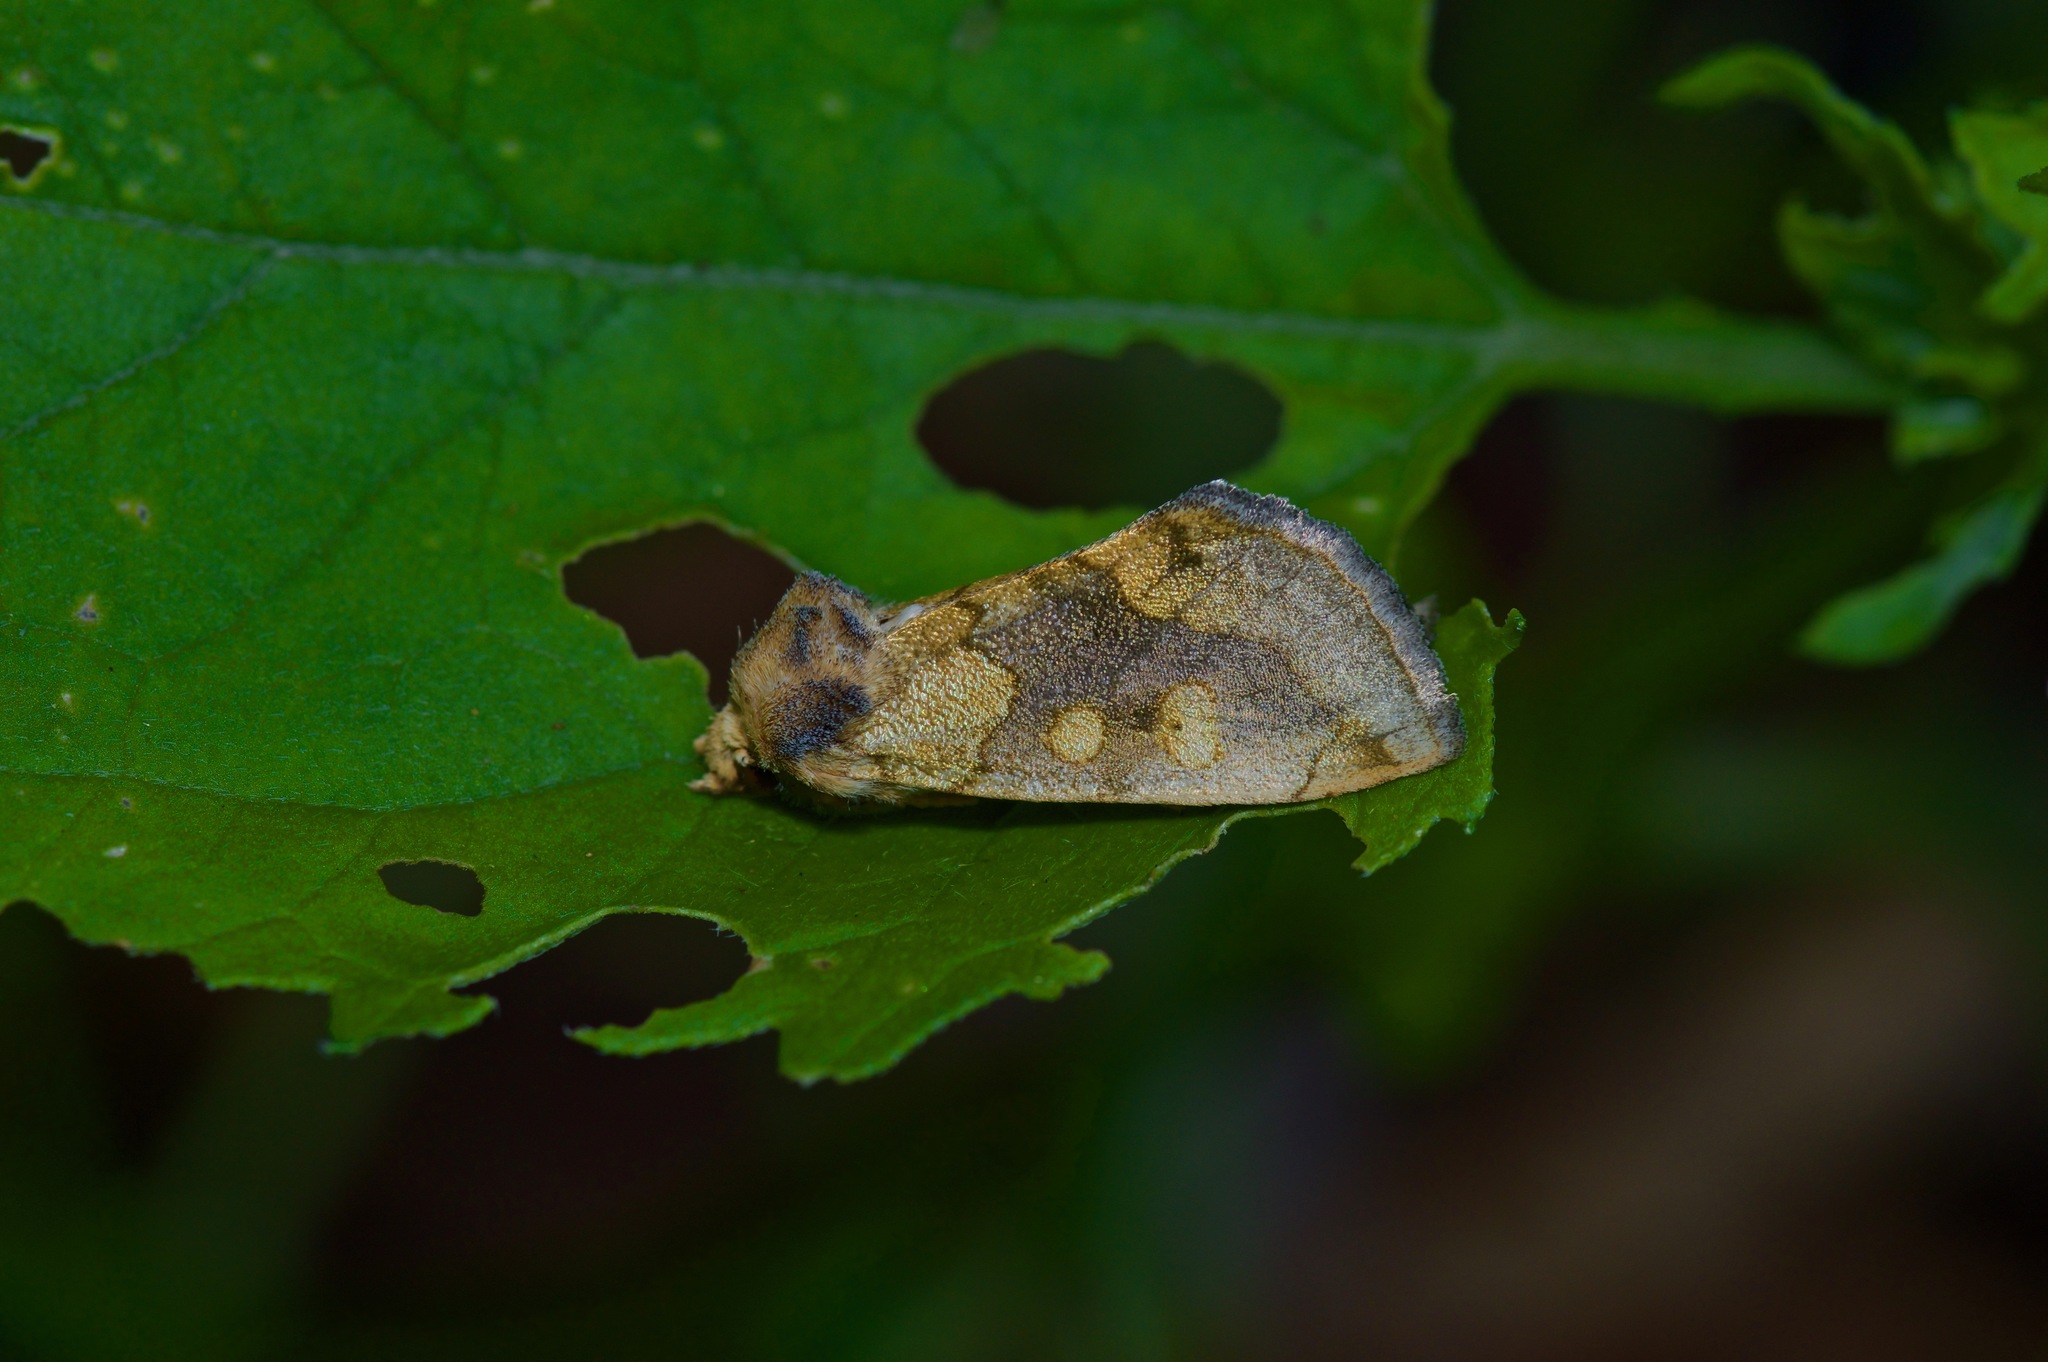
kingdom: Animalia
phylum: Arthropoda
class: Insecta
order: Lepidoptera
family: Noctuidae
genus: Basilodes
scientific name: Basilodes chrysopis
